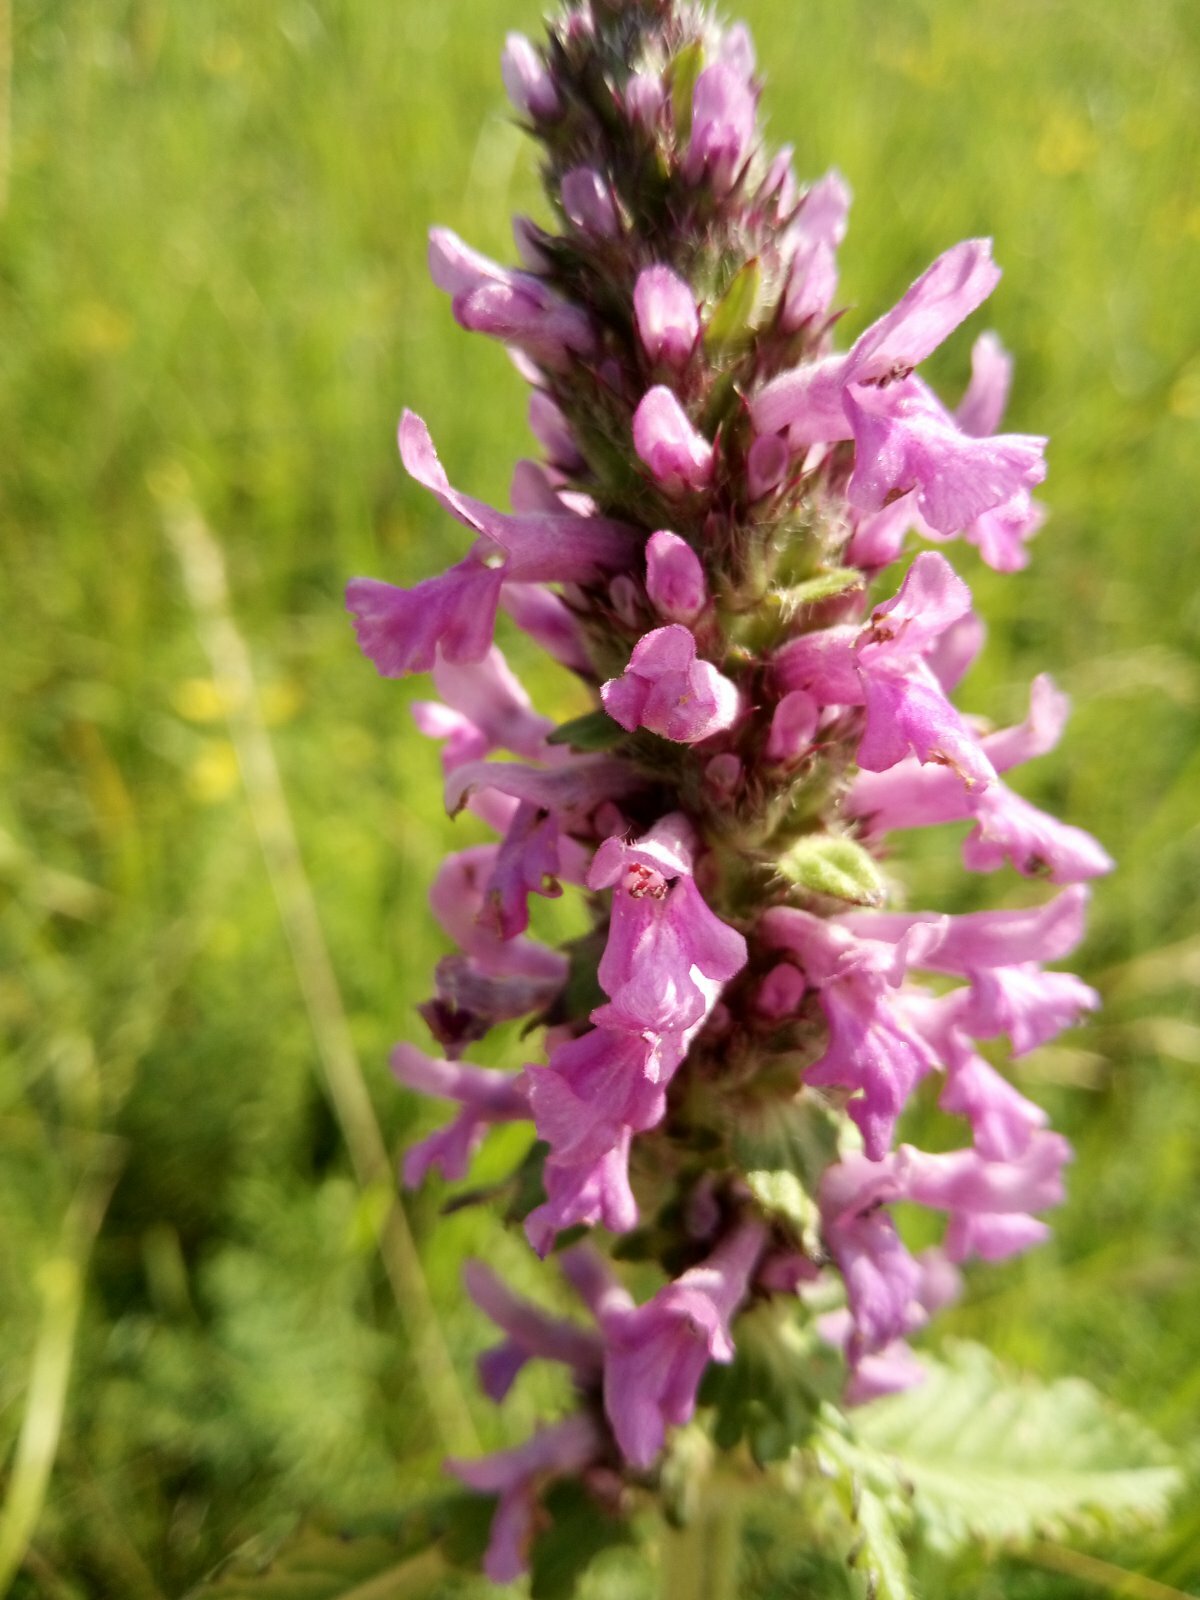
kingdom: Plantae
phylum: Tracheophyta
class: Magnoliopsida
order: Lamiales
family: Lamiaceae
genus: Betonica
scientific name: Betonica officinalis
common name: Bishop's-wort
